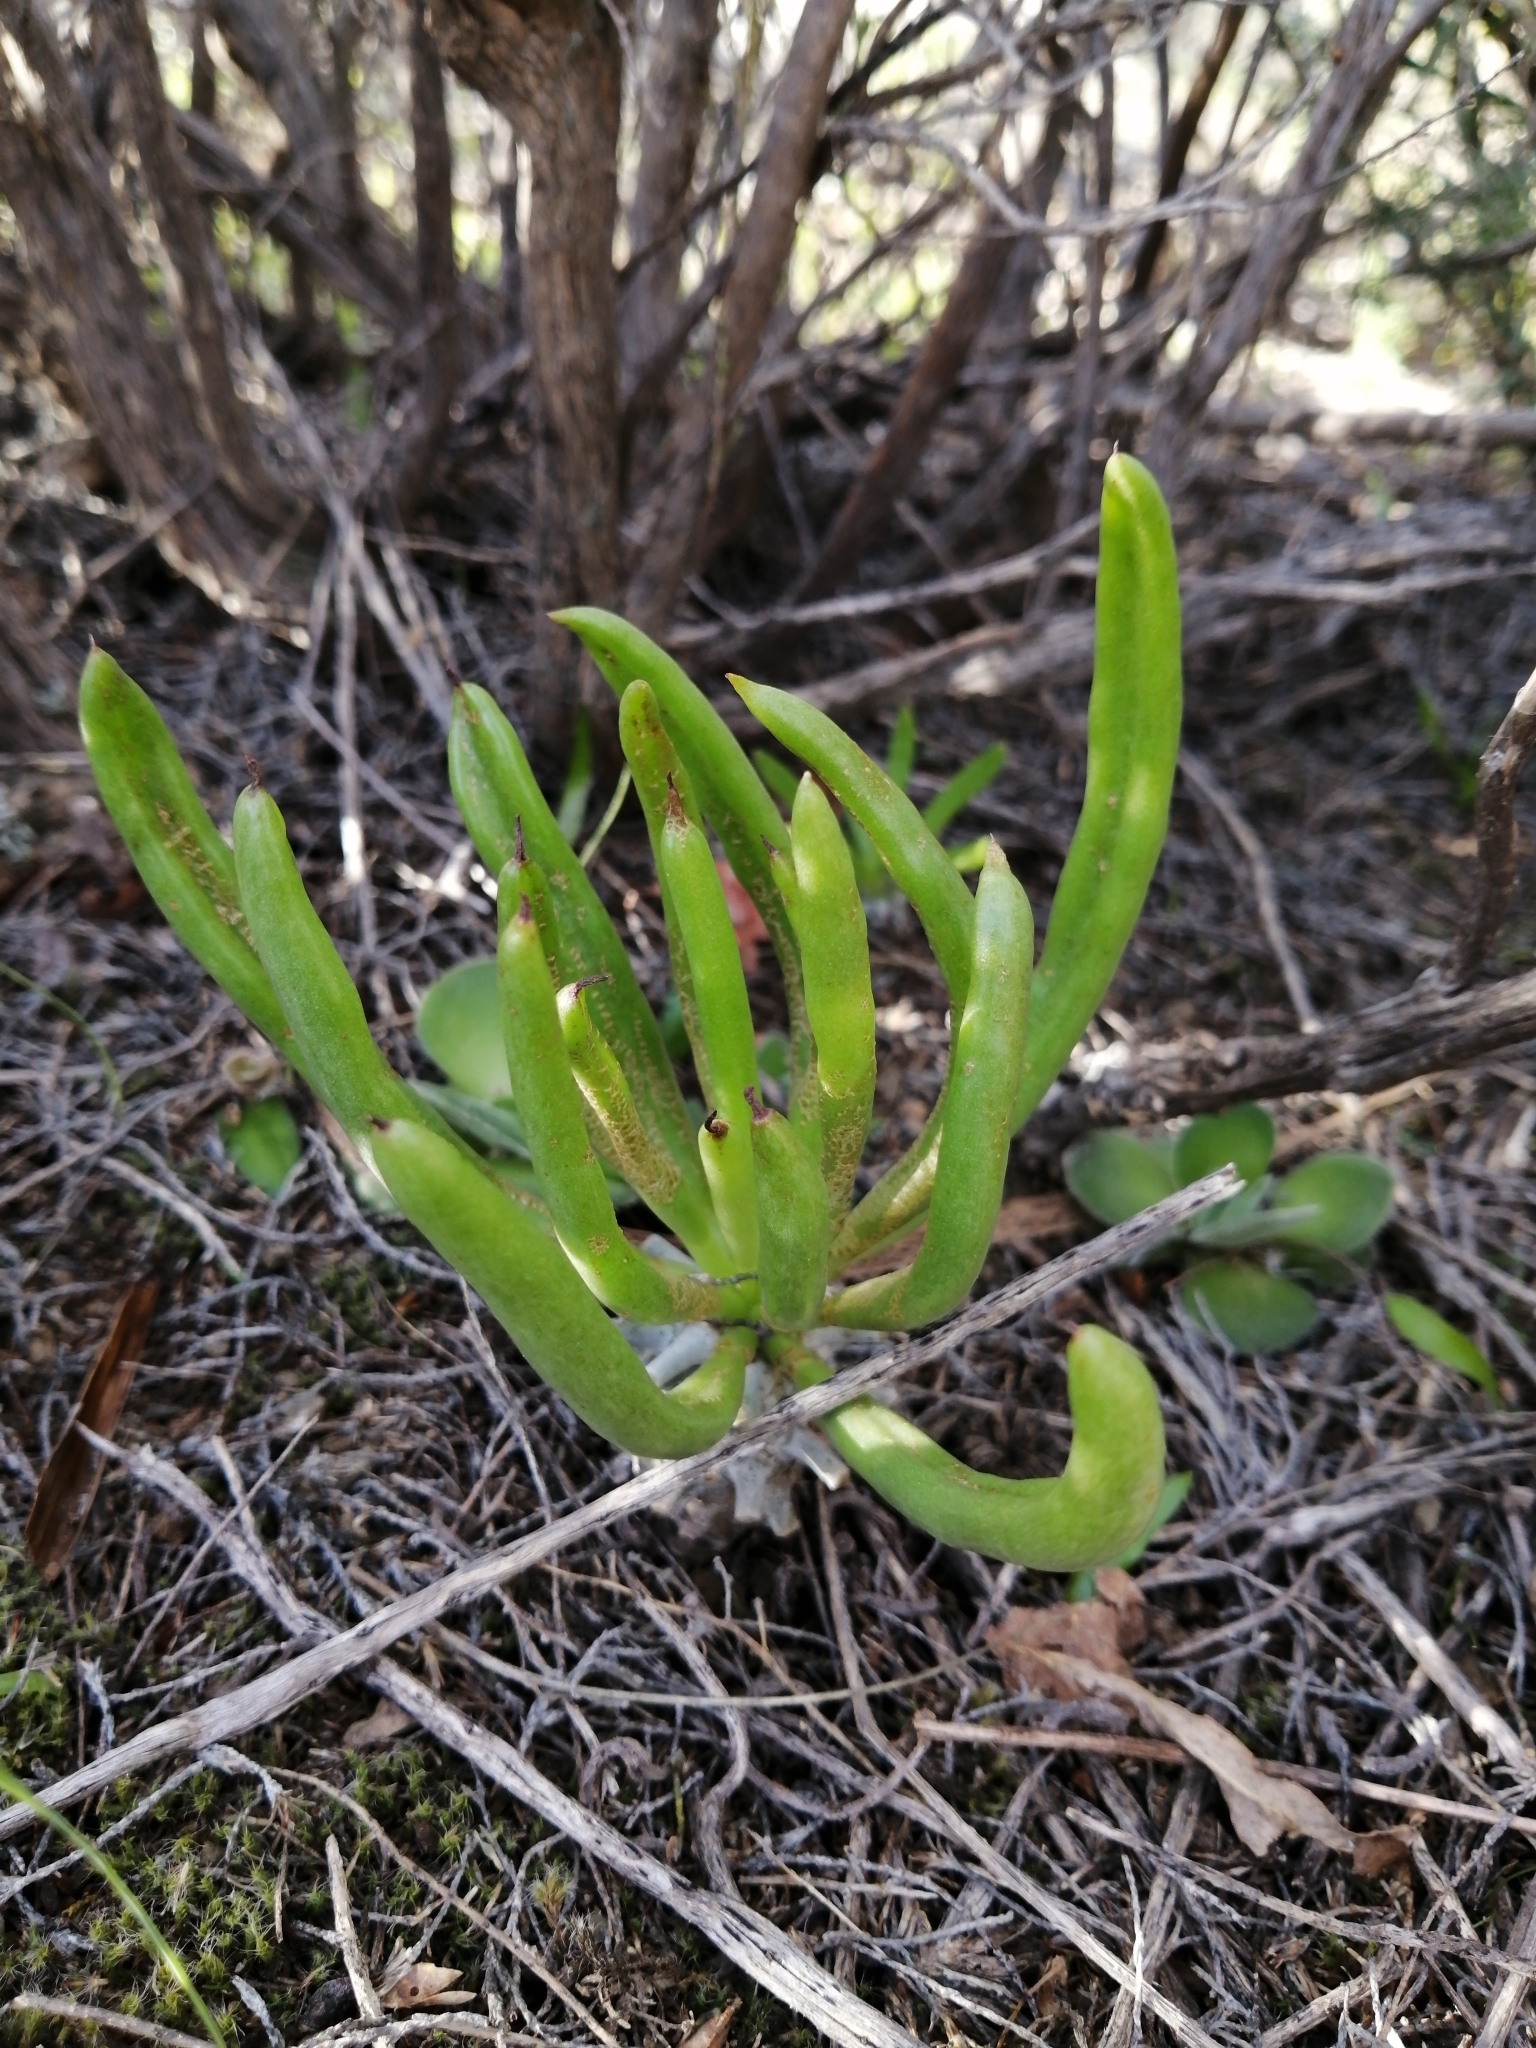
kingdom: Plantae
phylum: Tracheophyta
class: Magnoliopsida
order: Saxifragales
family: Crassulaceae
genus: Tylecodon
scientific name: Tylecodon wallichii
